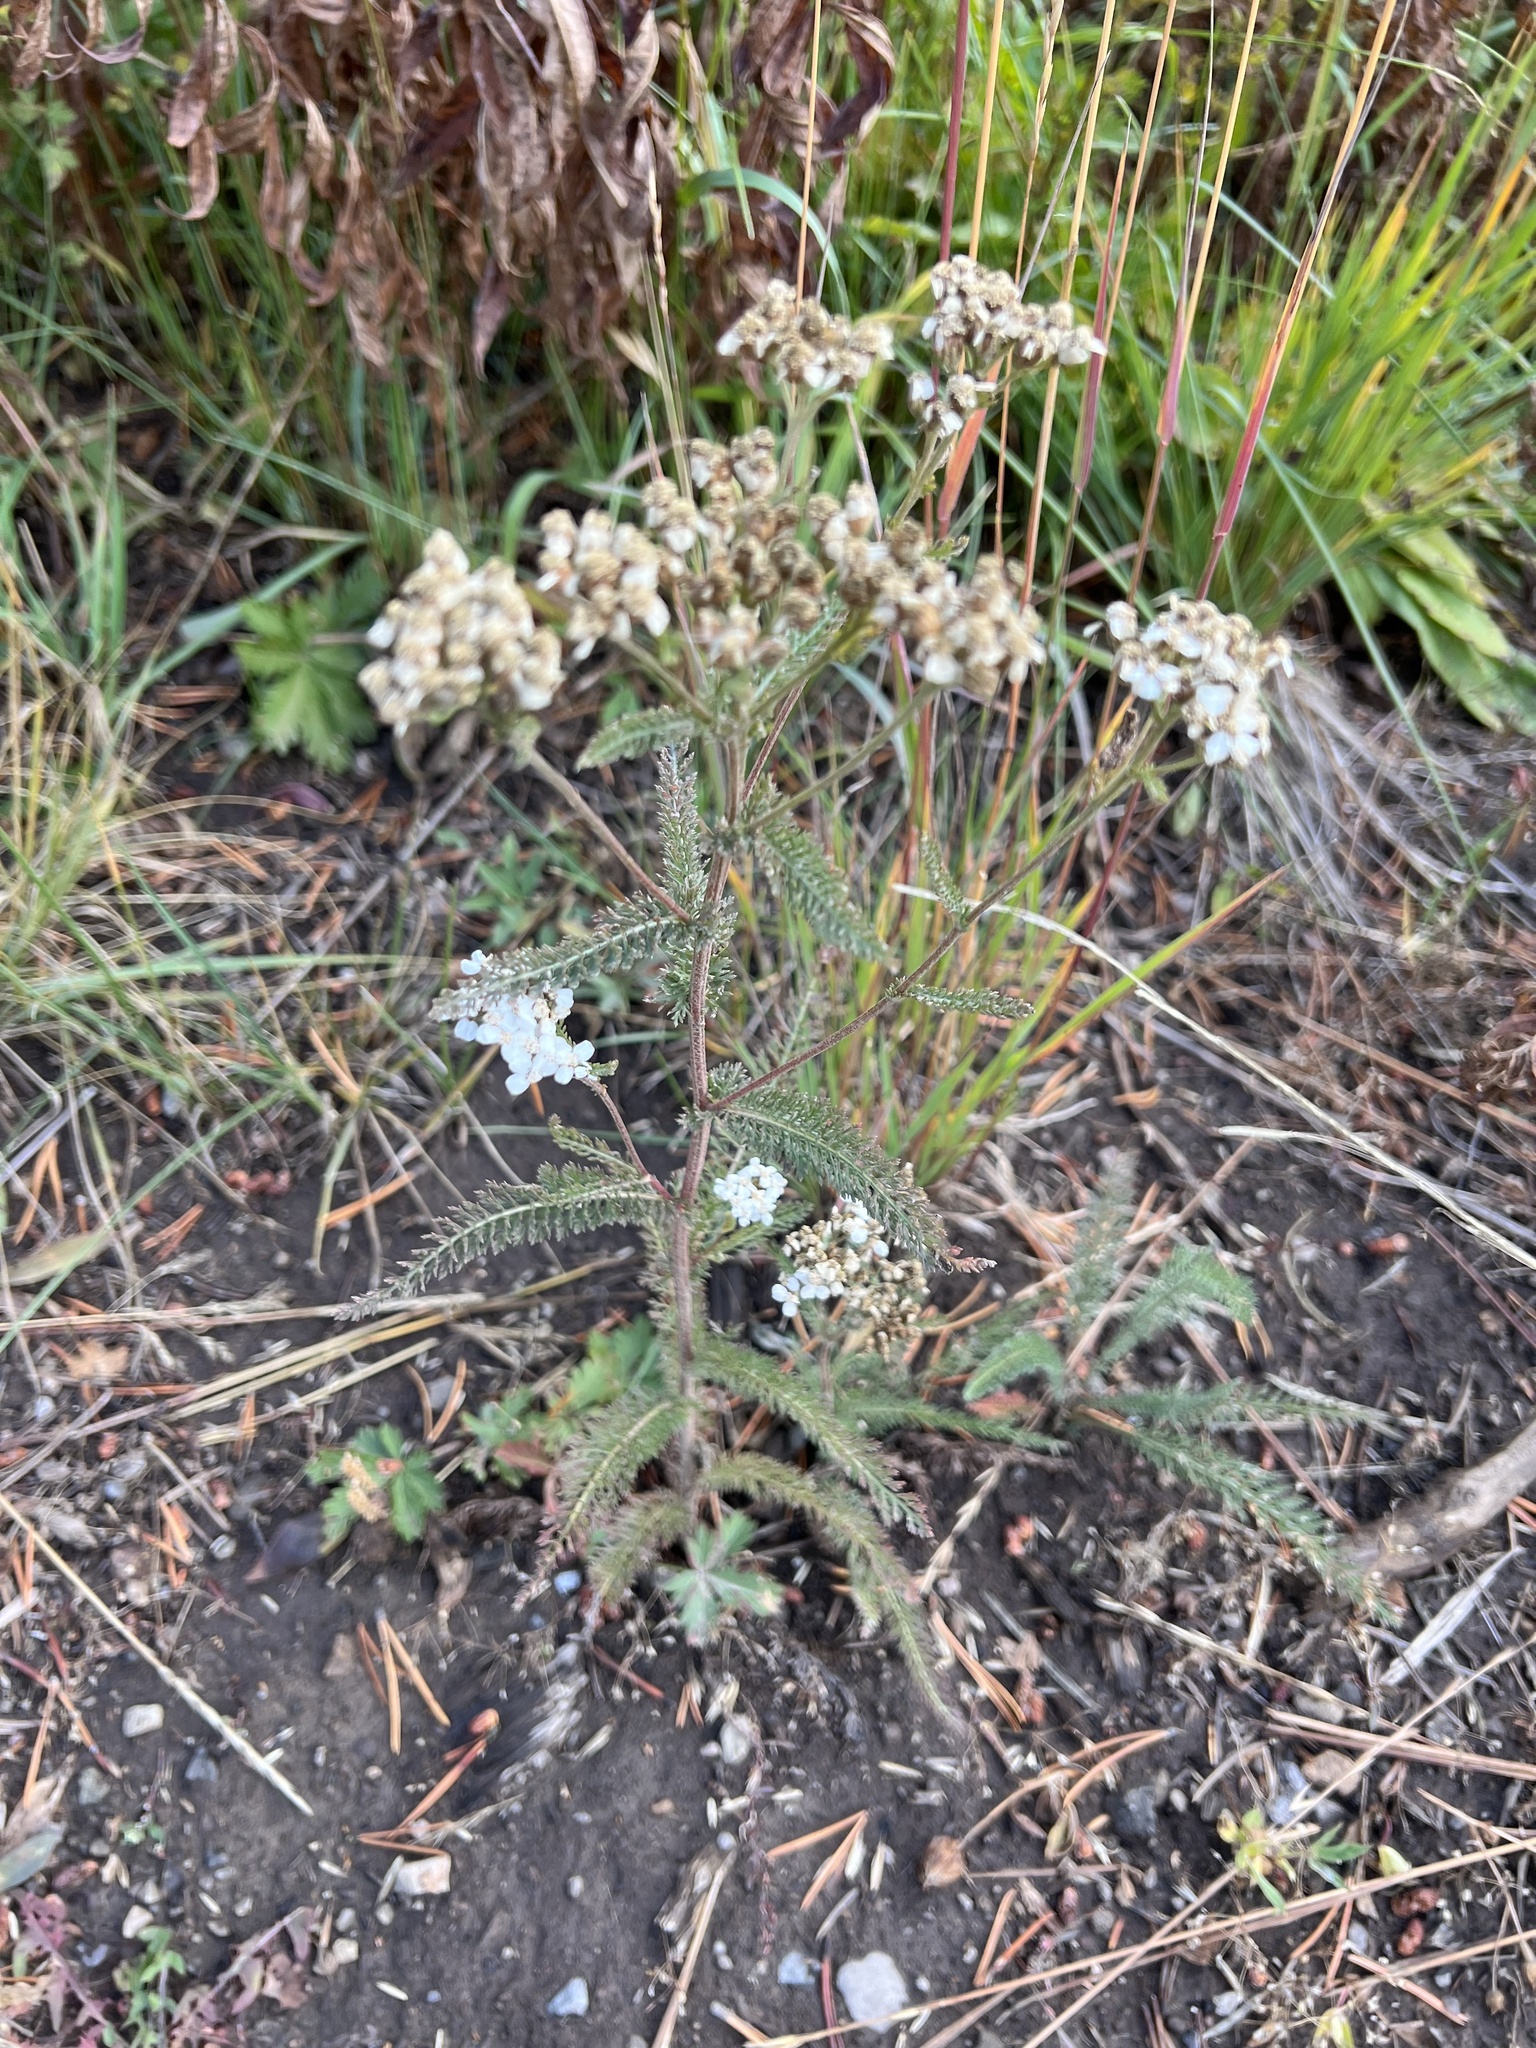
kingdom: Plantae
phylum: Tracheophyta
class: Magnoliopsida
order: Asterales
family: Asteraceae
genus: Achillea
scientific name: Achillea millefolium
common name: Yarrow
